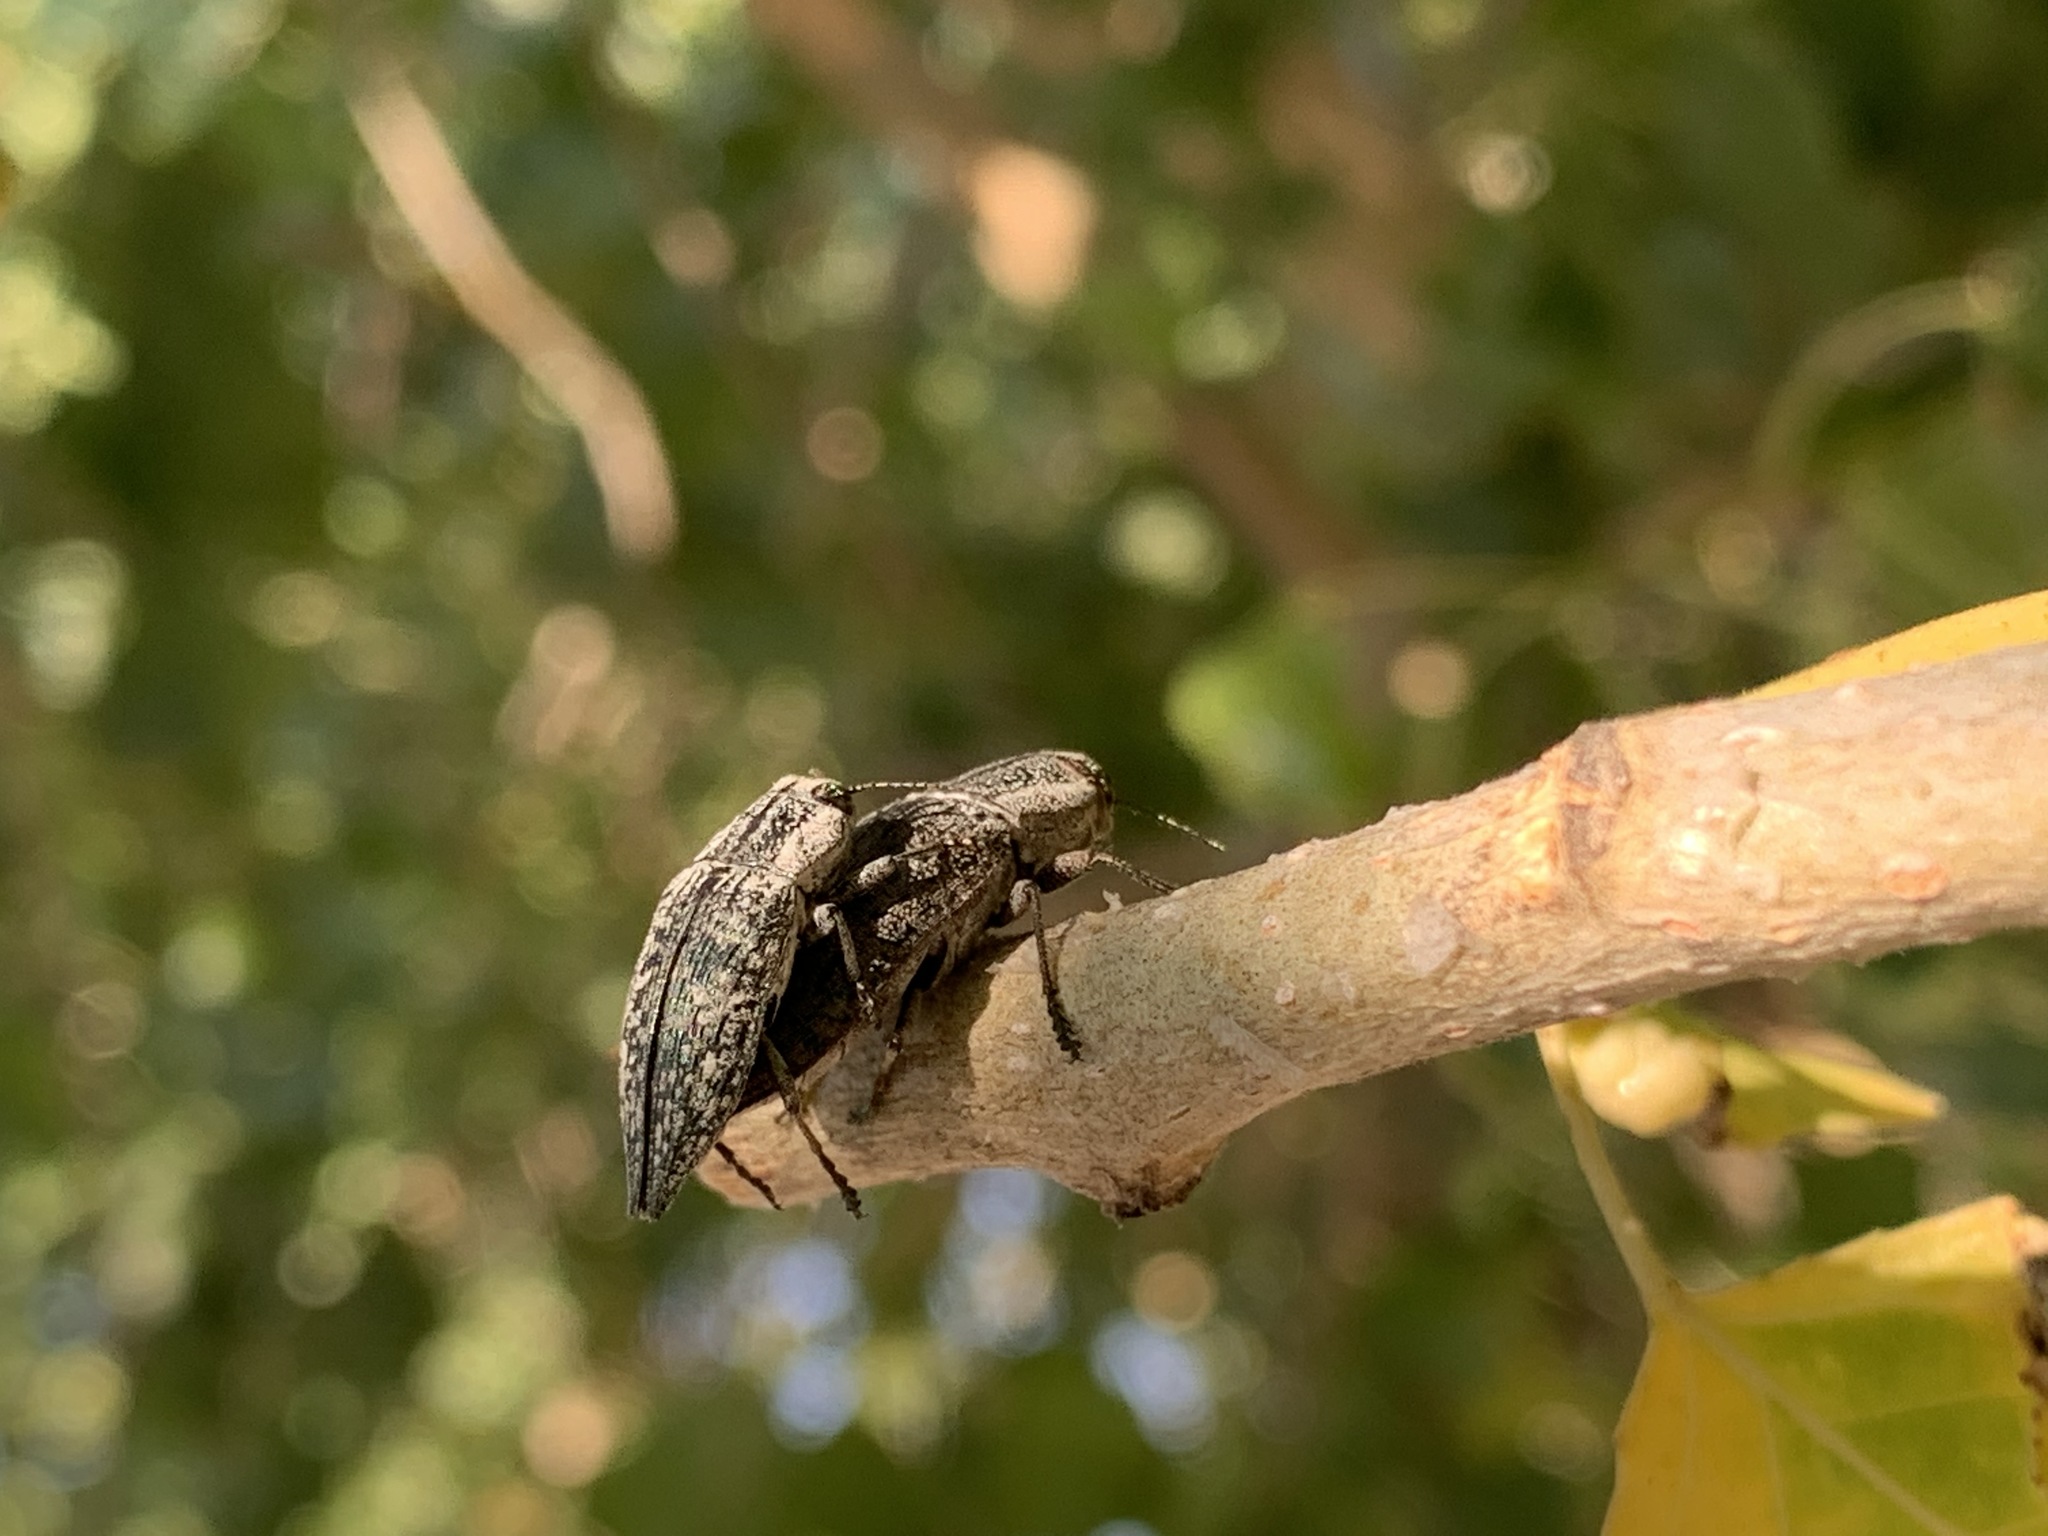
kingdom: Animalia
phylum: Arthropoda
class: Insecta
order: Coleoptera
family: Buprestidae
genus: Poecilonota
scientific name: Poecilonota bridwelli
